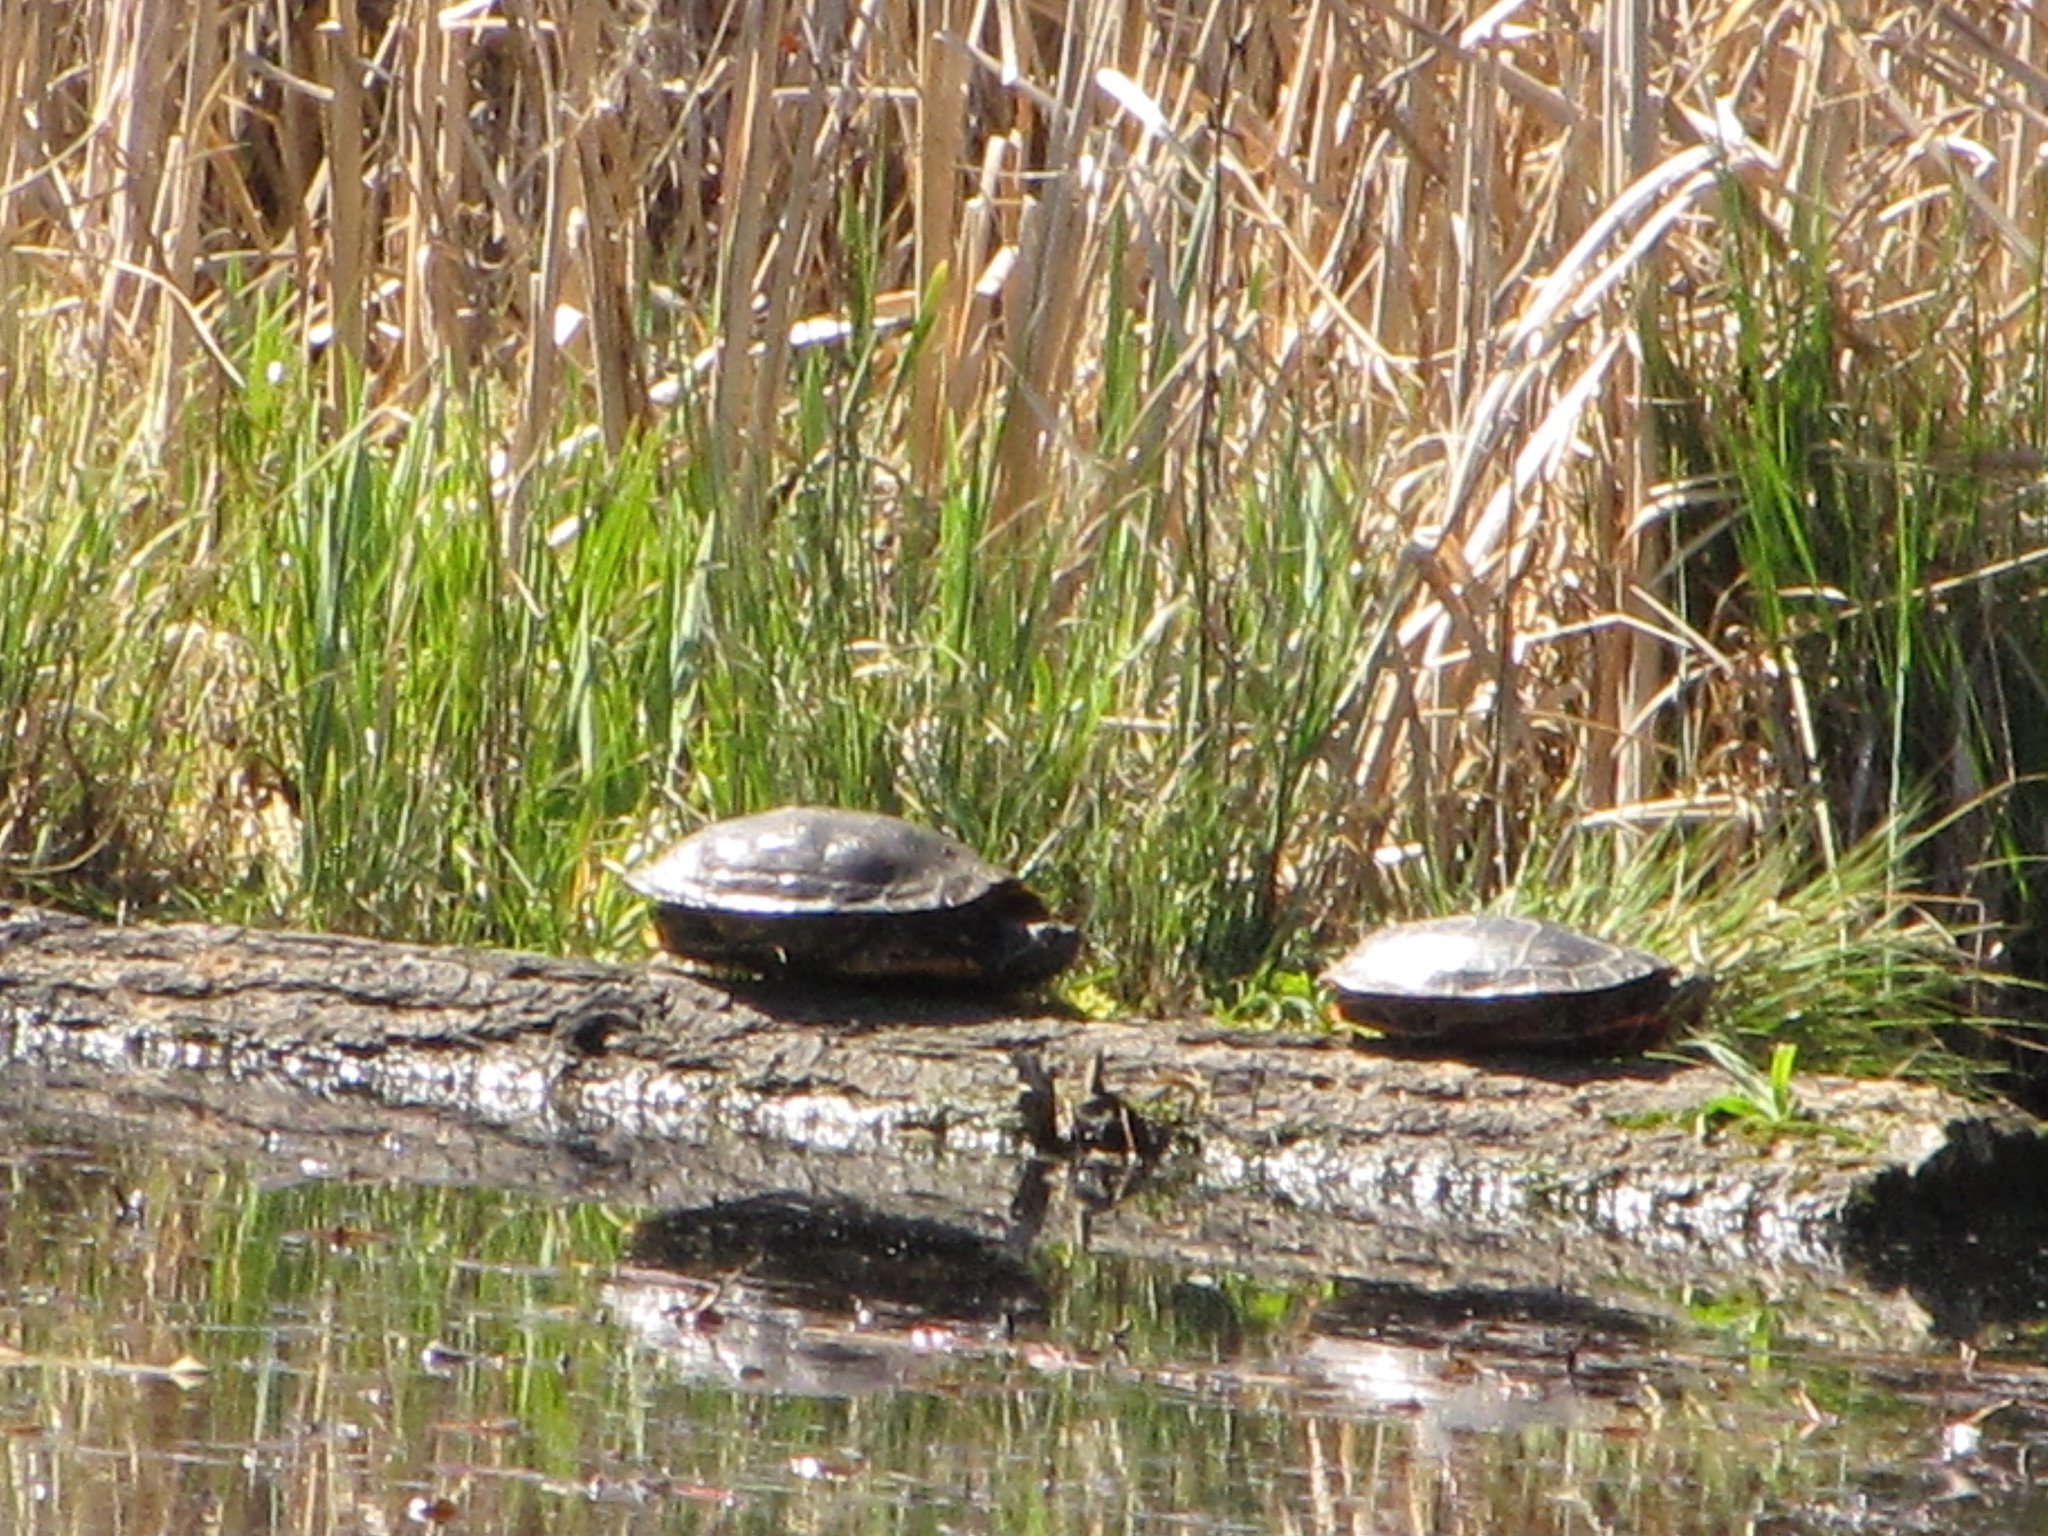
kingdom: Animalia
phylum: Chordata
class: Testudines
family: Emydidae
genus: Chrysemys
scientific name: Chrysemys picta
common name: Painted turtle
